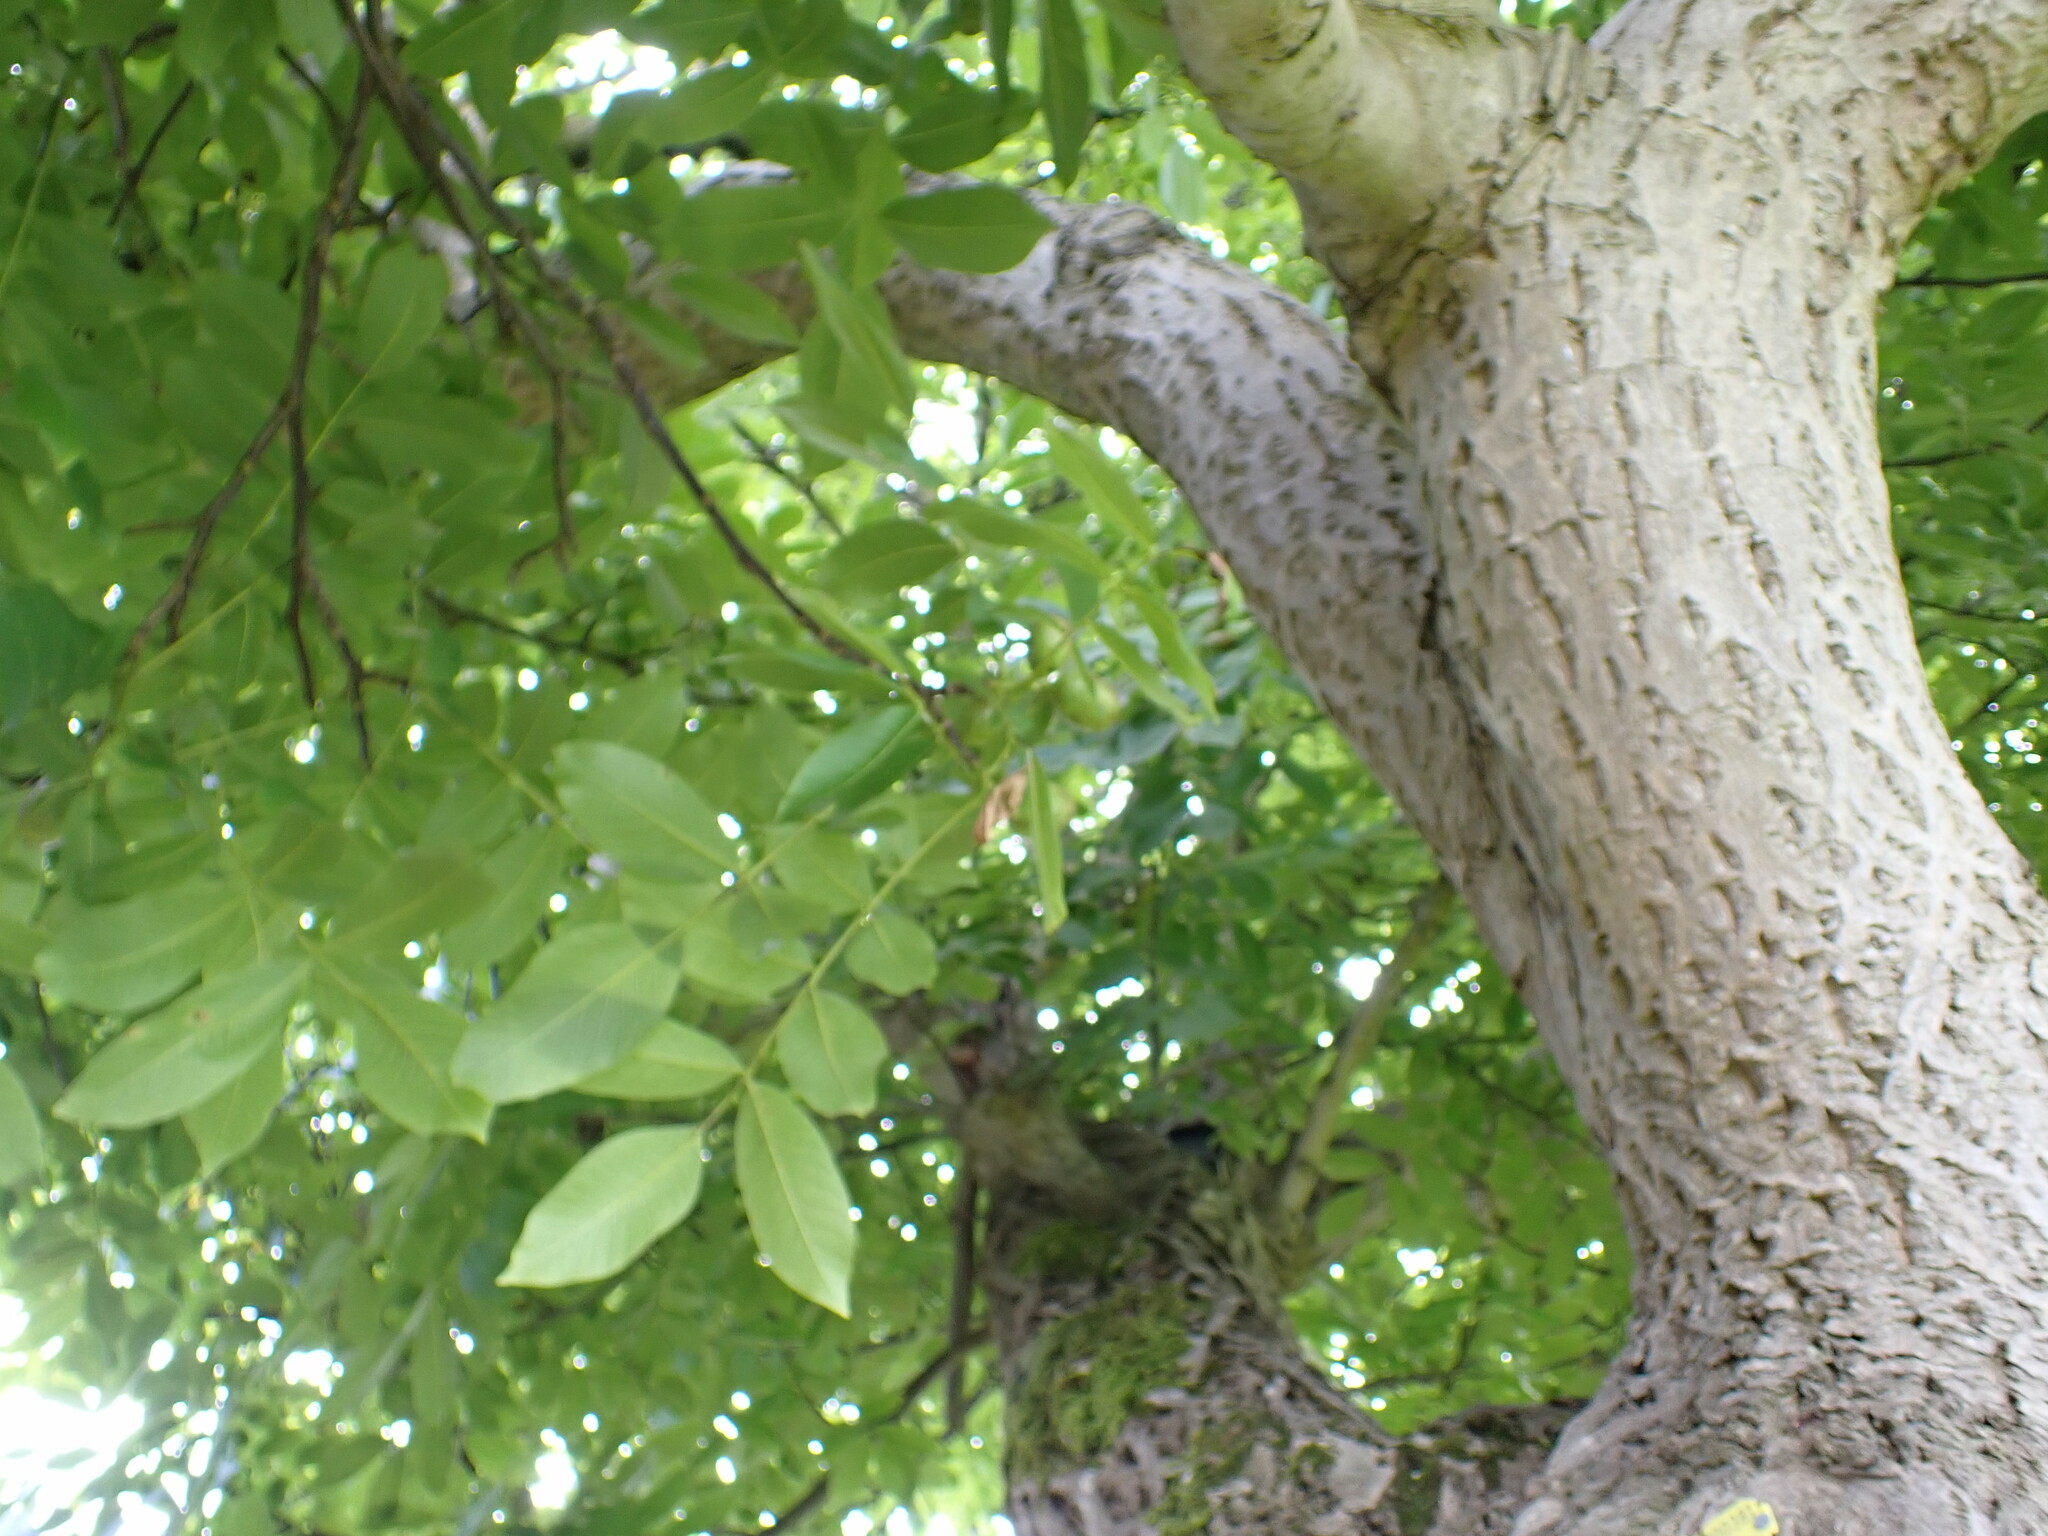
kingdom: Plantae
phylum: Tracheophyta
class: Magnoliopsida
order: Fagales
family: Juglandaceae
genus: Juglans
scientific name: Juglans regia
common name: Walnut
